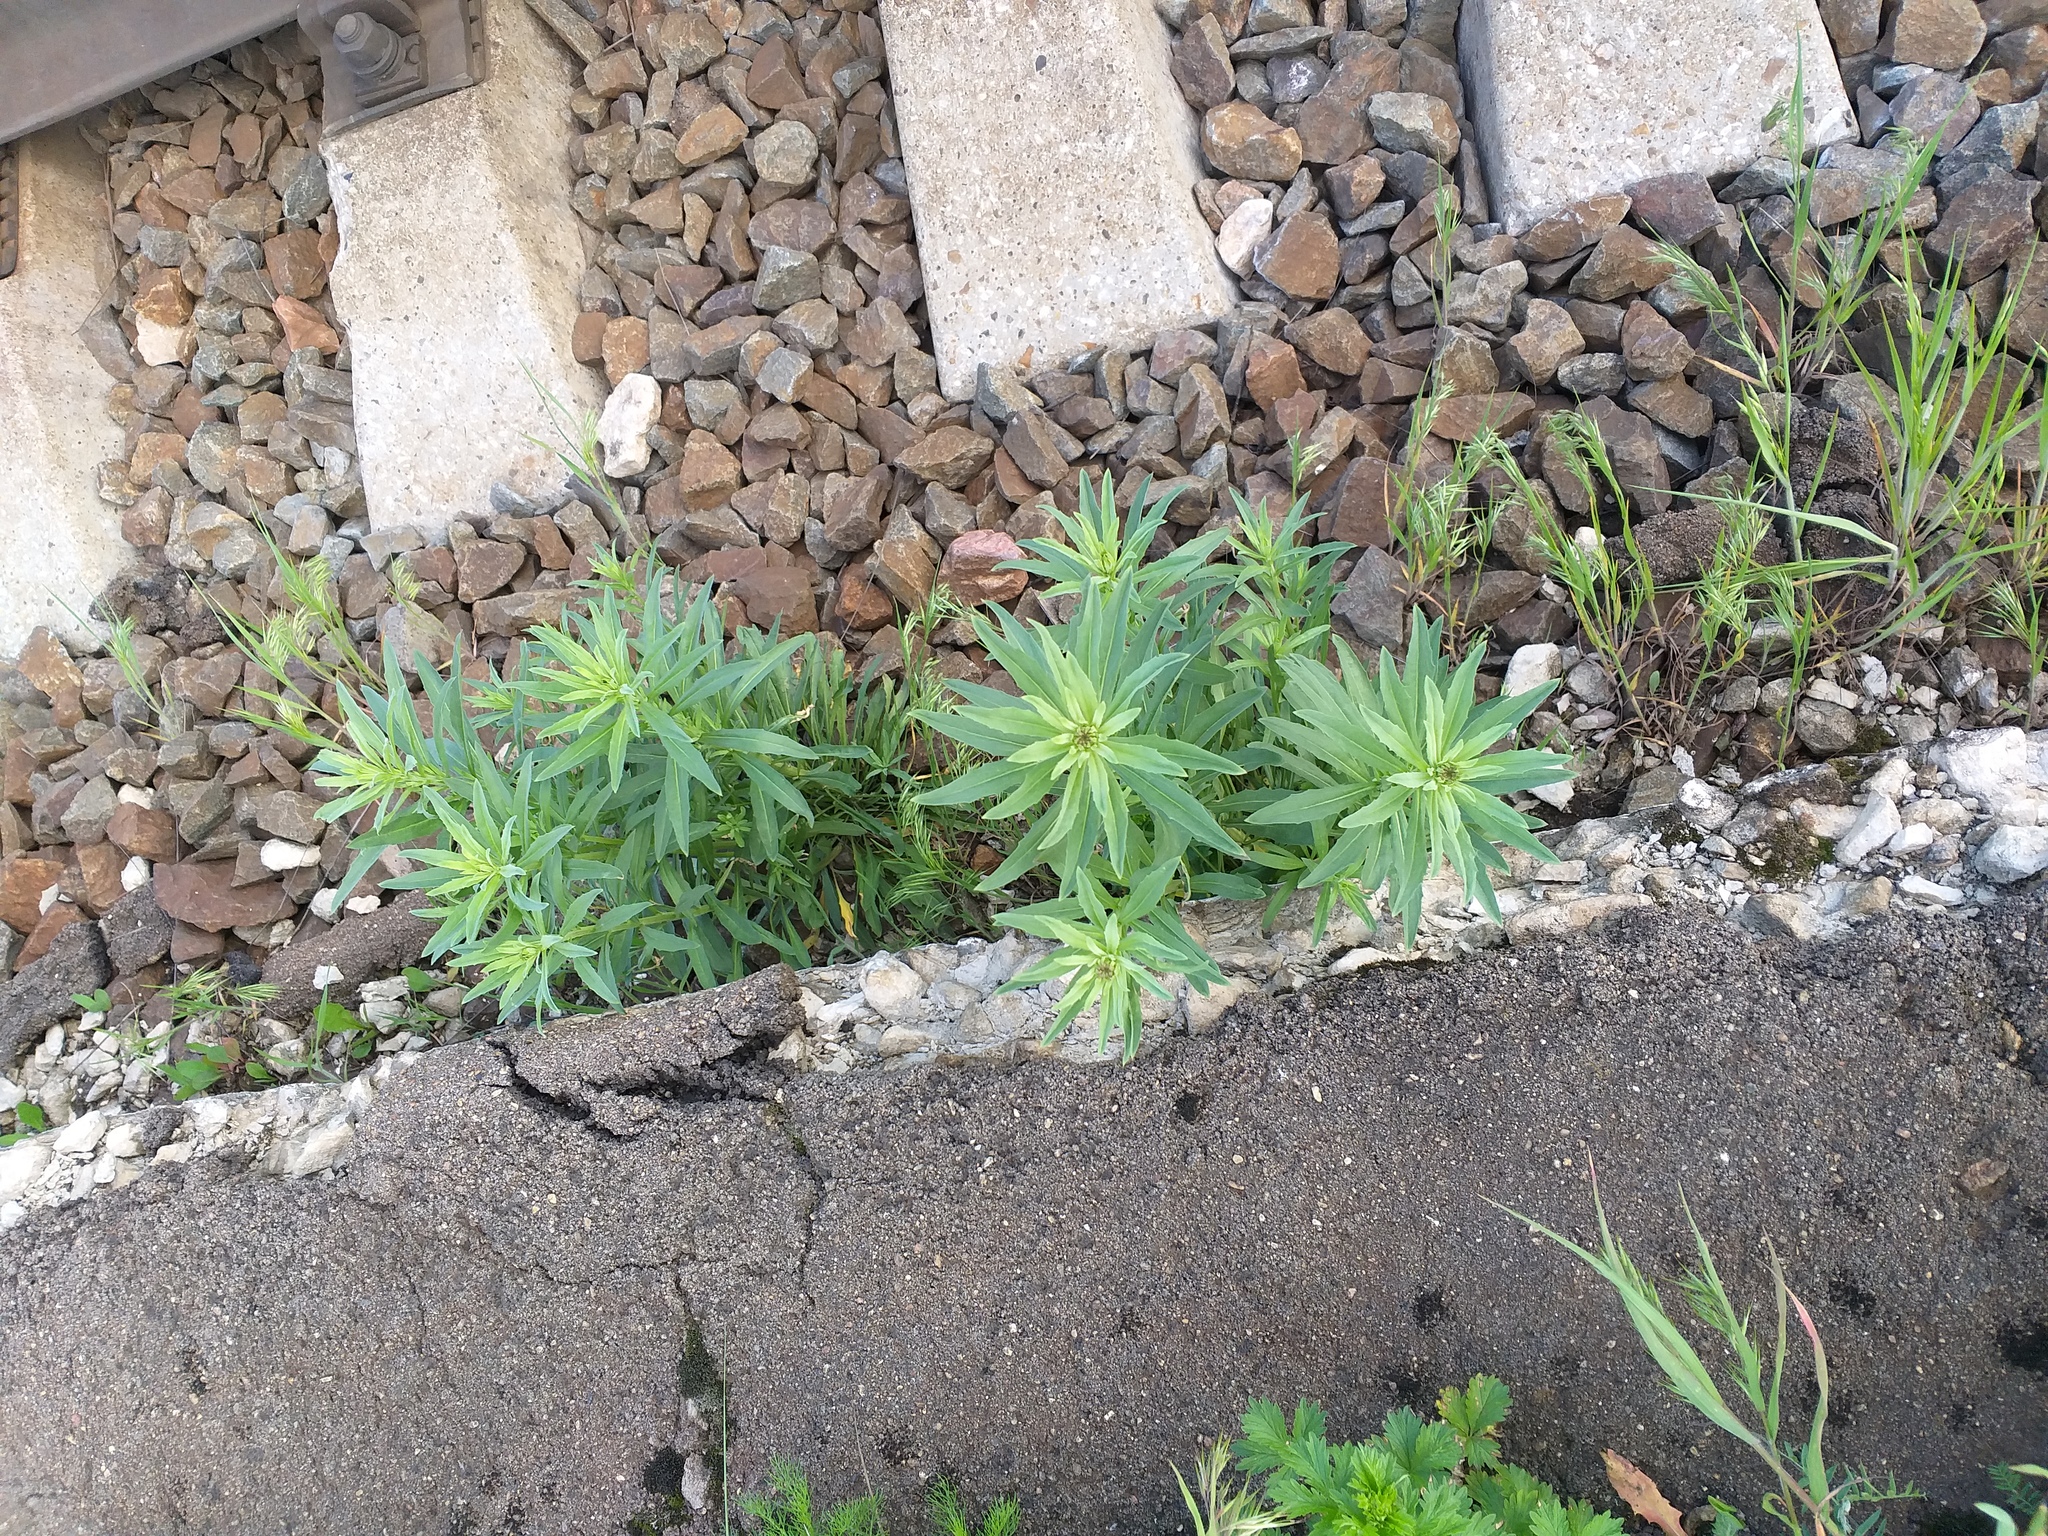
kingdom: Plantae
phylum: Tracheophyta
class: Magnoliopsida
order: Brassicales
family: Brassicaceae
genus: Erysimum
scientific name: Erysimum hieraciifolium
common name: European wallflower
